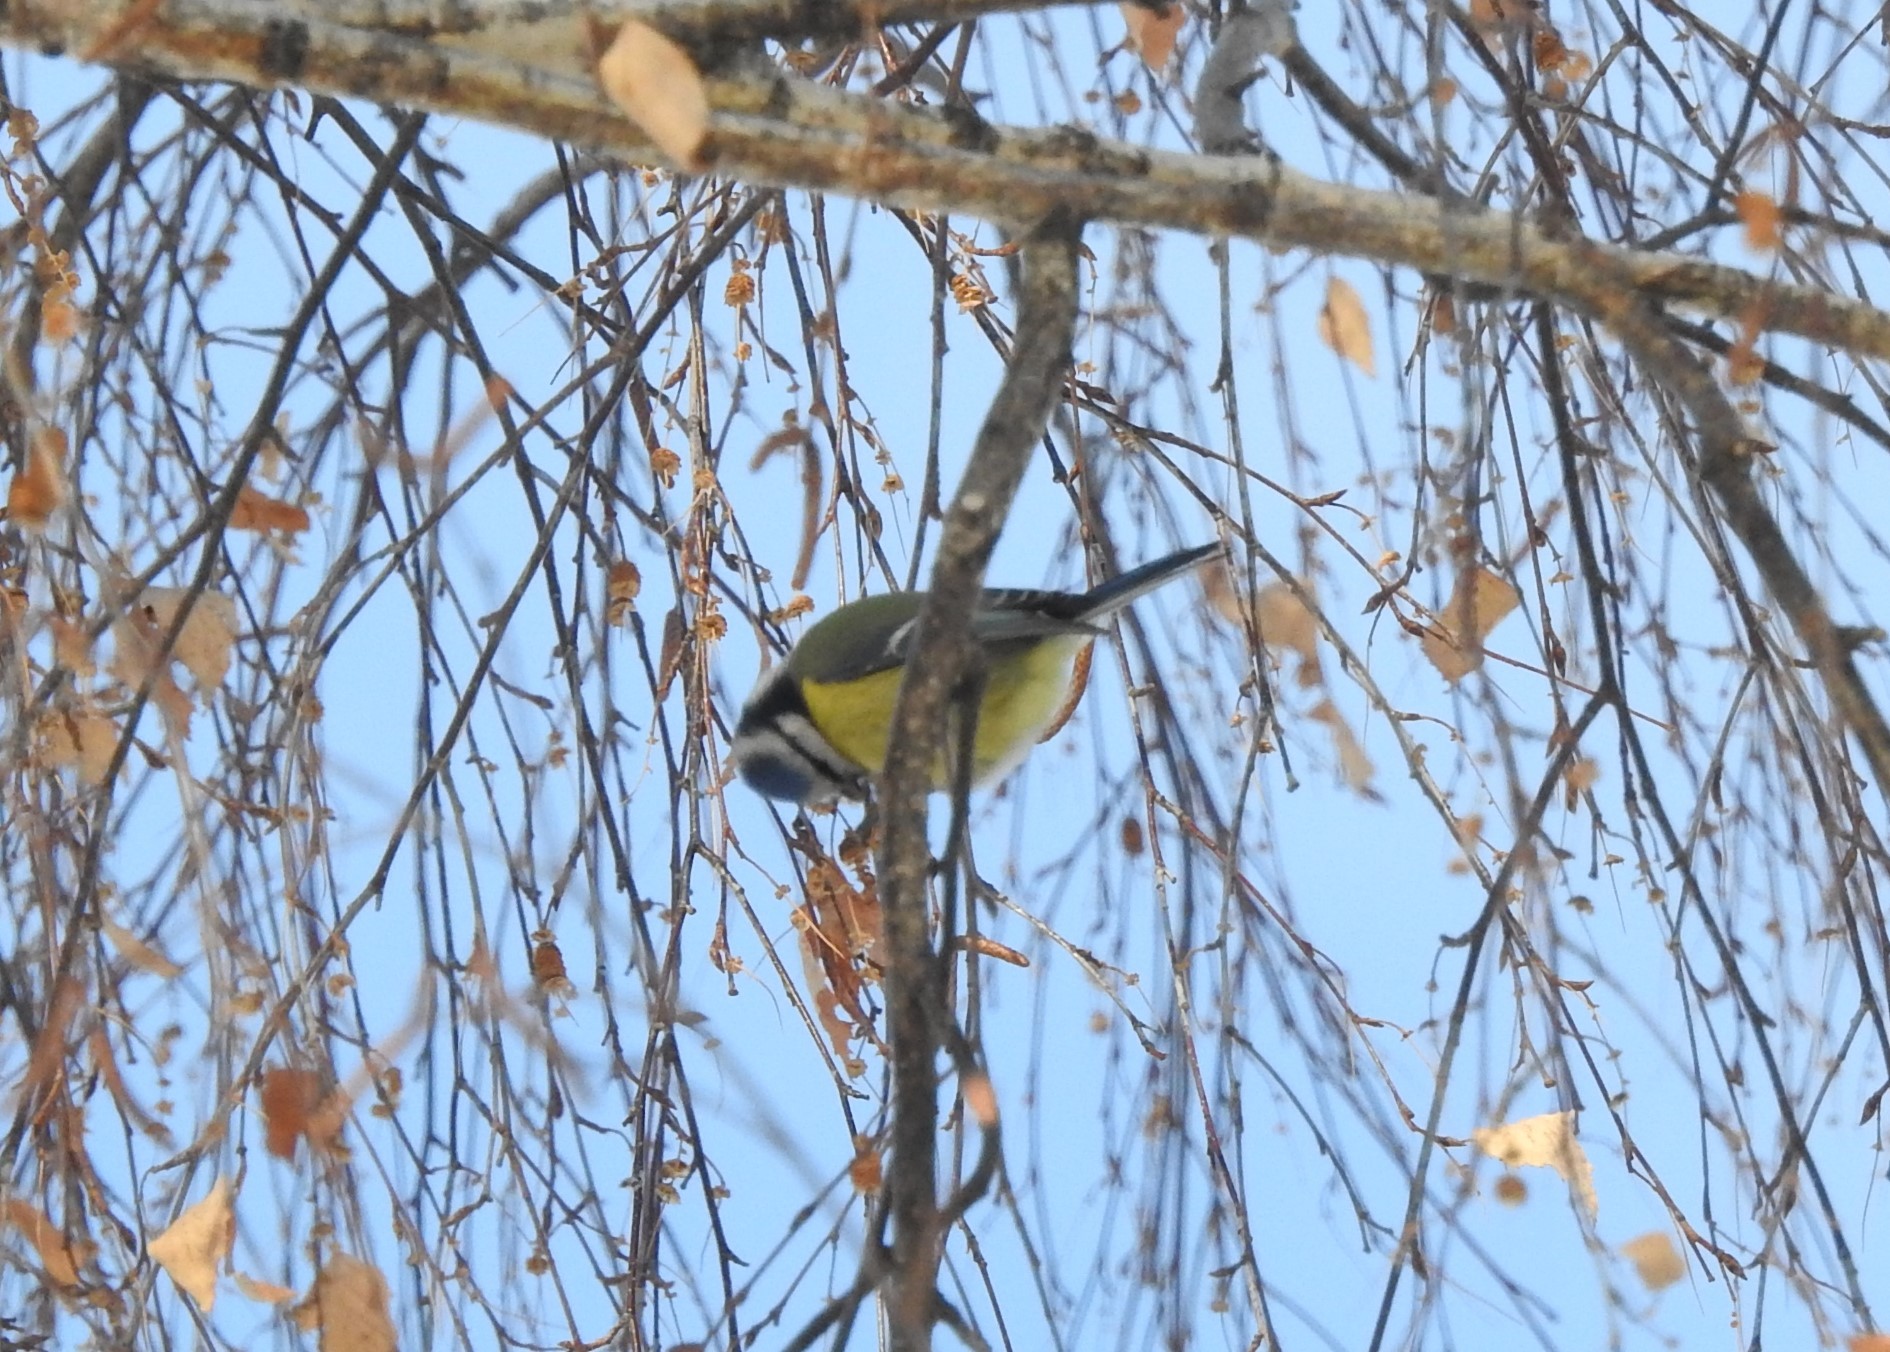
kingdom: Animalia
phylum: Chordata
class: Aves
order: Passeriformes
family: Paridae
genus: Cyanistes
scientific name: Cyanistes caeruleus
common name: Eurasian blue tit
